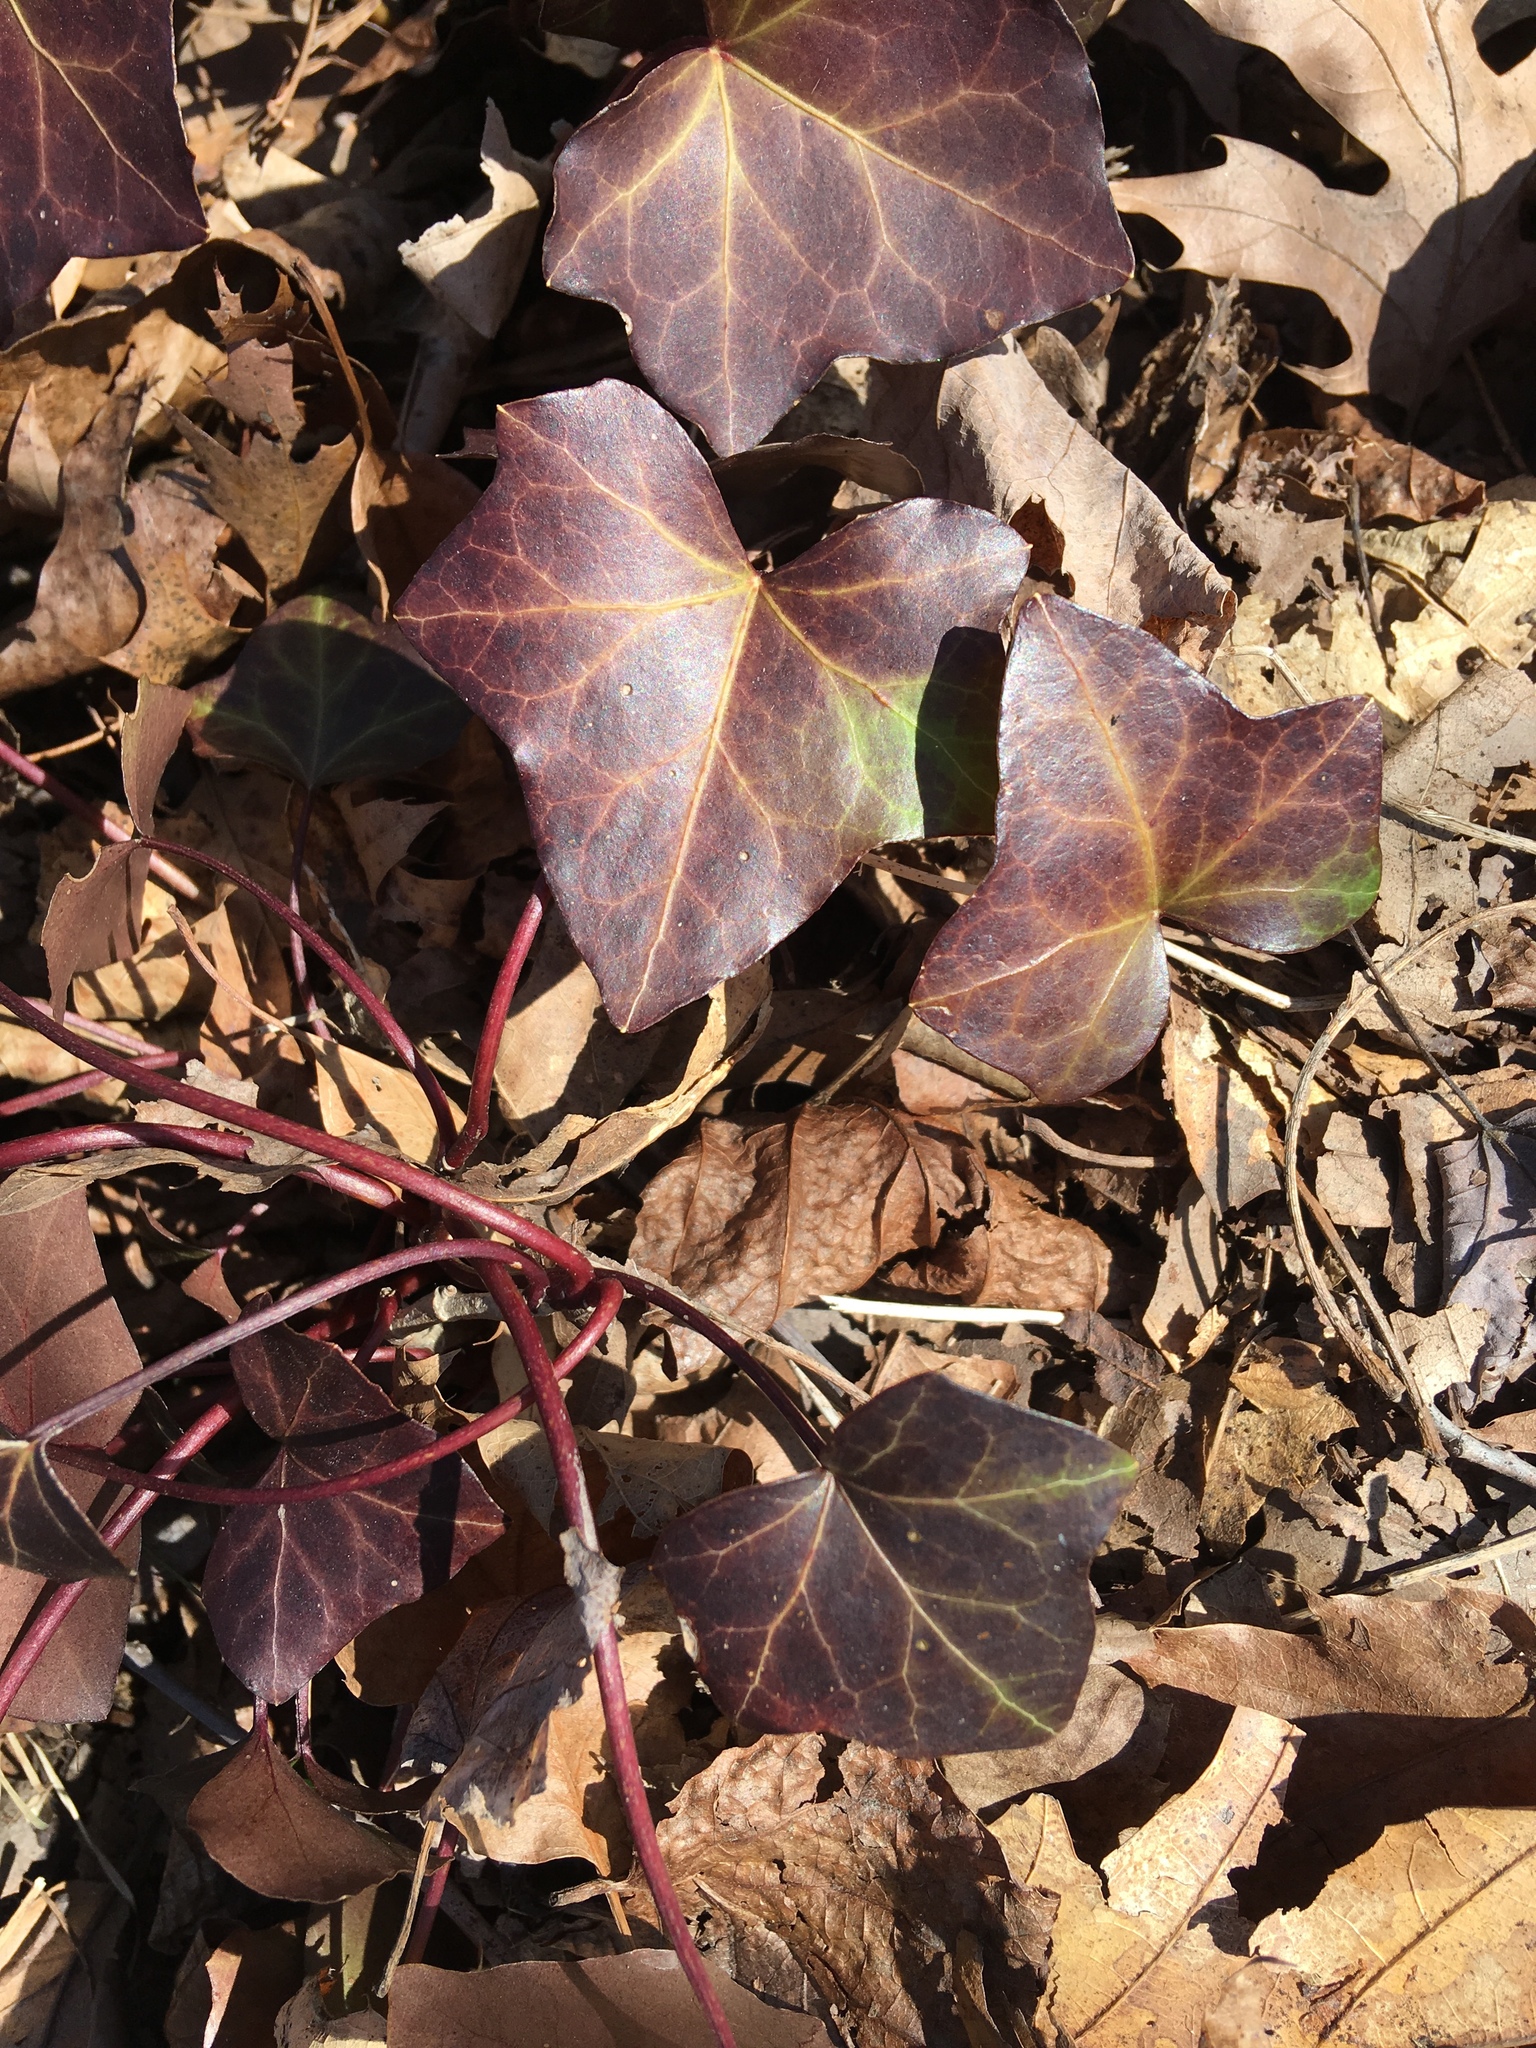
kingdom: Plantae
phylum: Tracheophyta
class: Magnoliopsida
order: Apiales
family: Araliaceae
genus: Hedera
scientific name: Hedera helix
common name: Ivy
